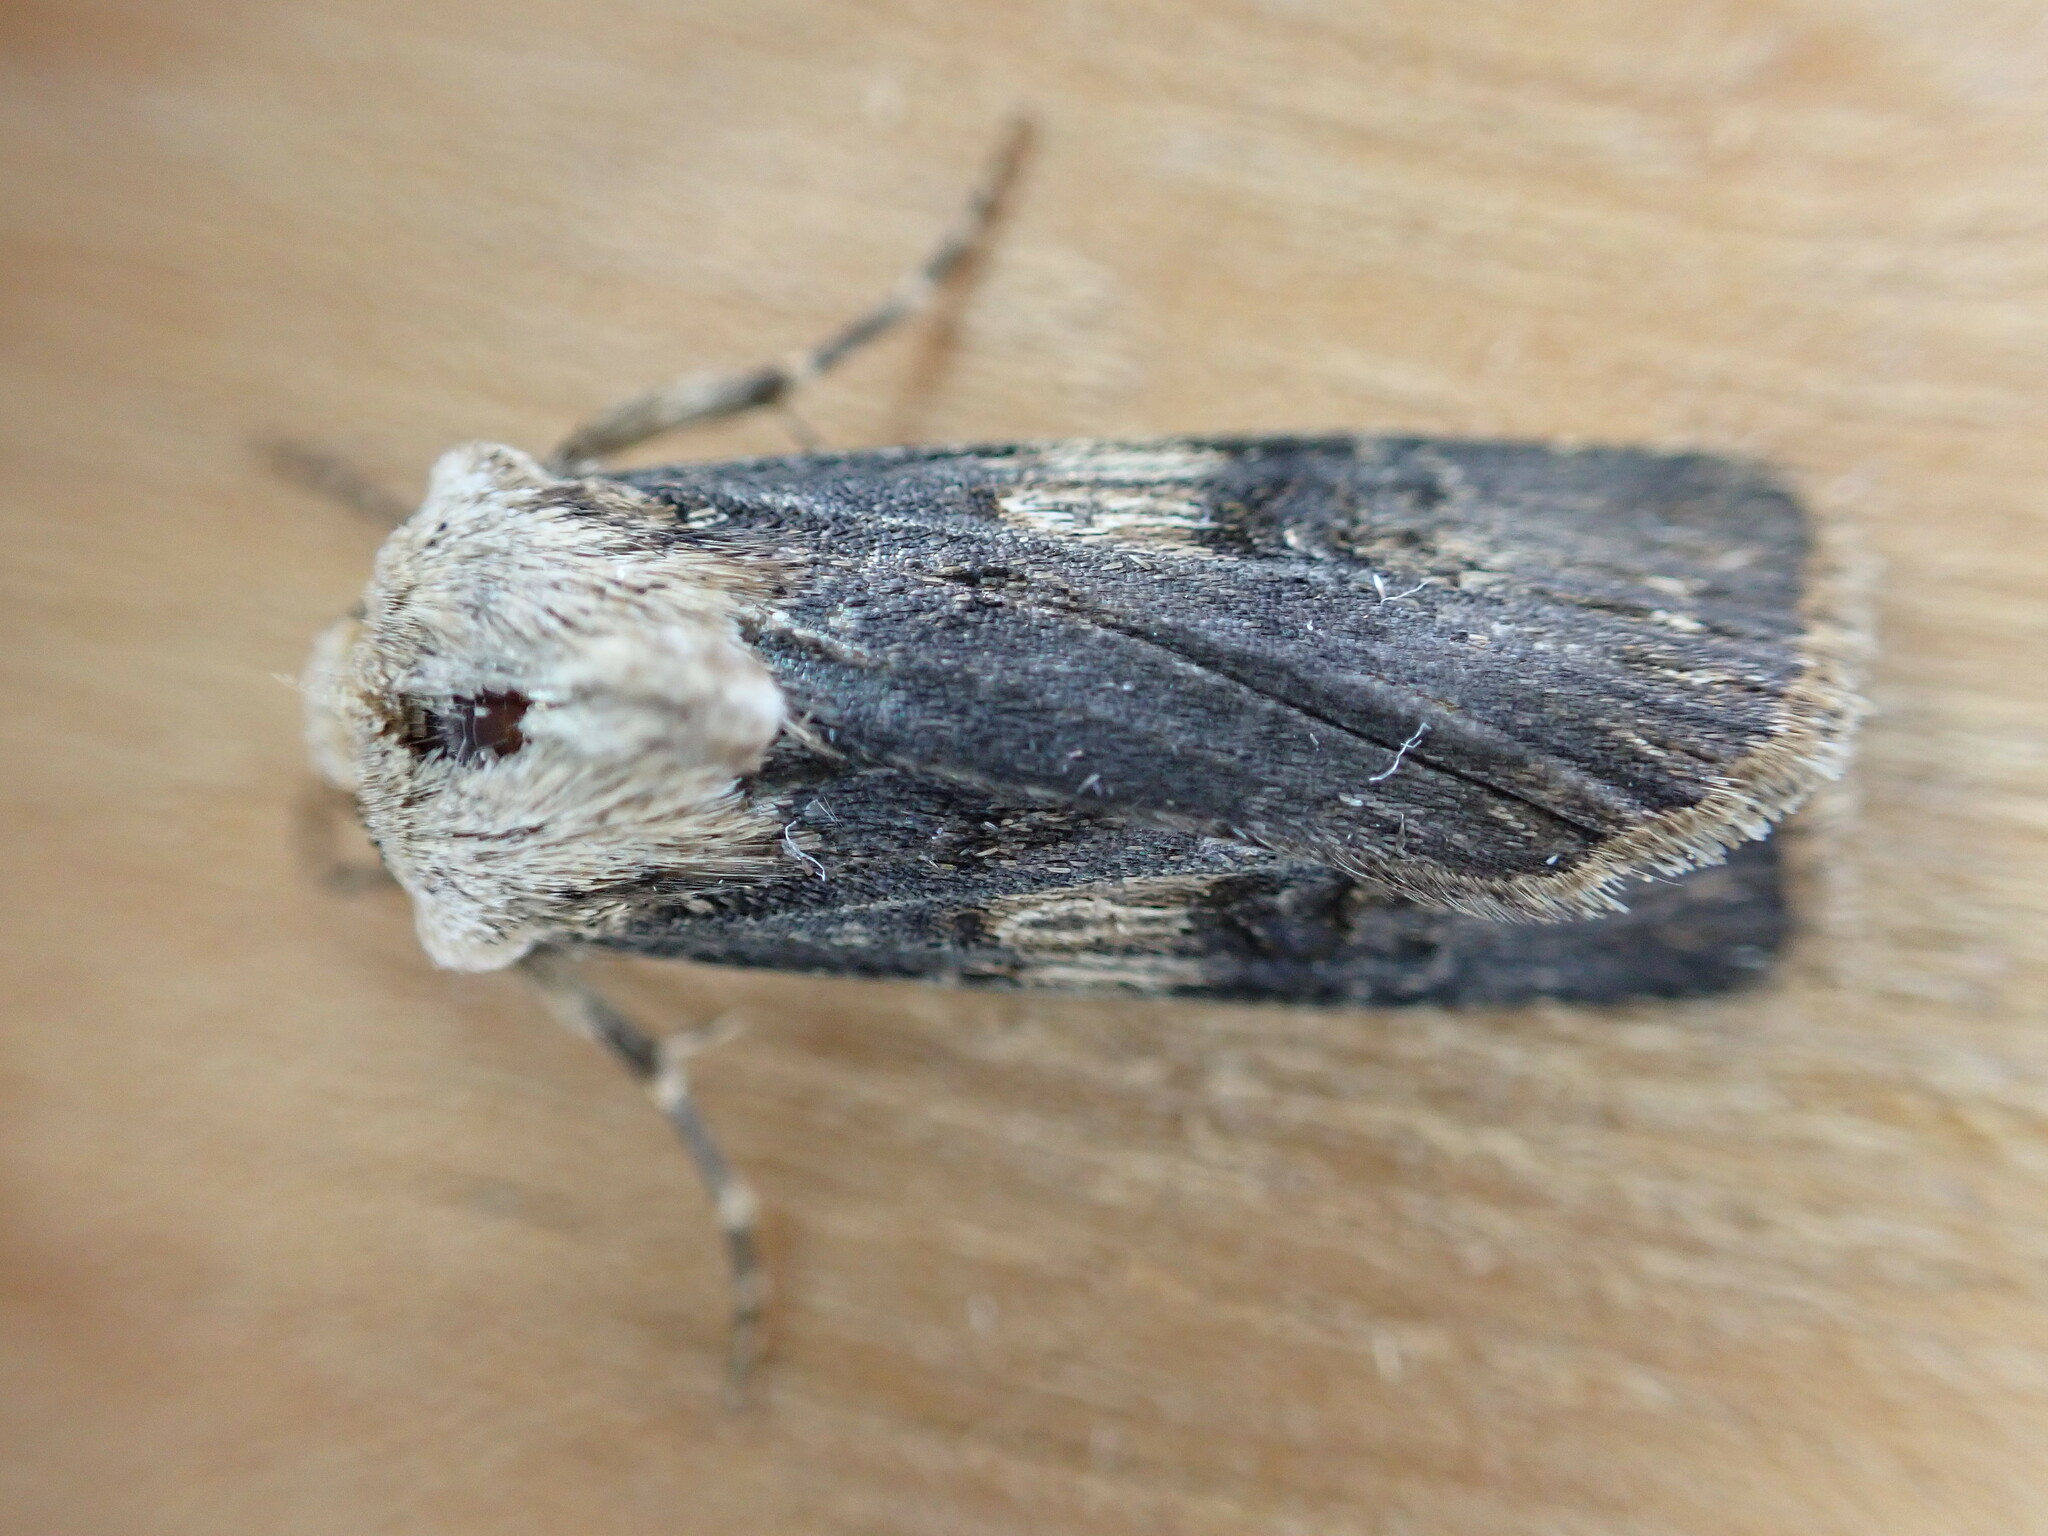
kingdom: Animalia
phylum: Arthropoda
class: Insecta
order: Lepidoptera
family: Noctuidae
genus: Agrotis
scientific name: Agrotis puta
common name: Shuttle-shaped dart
